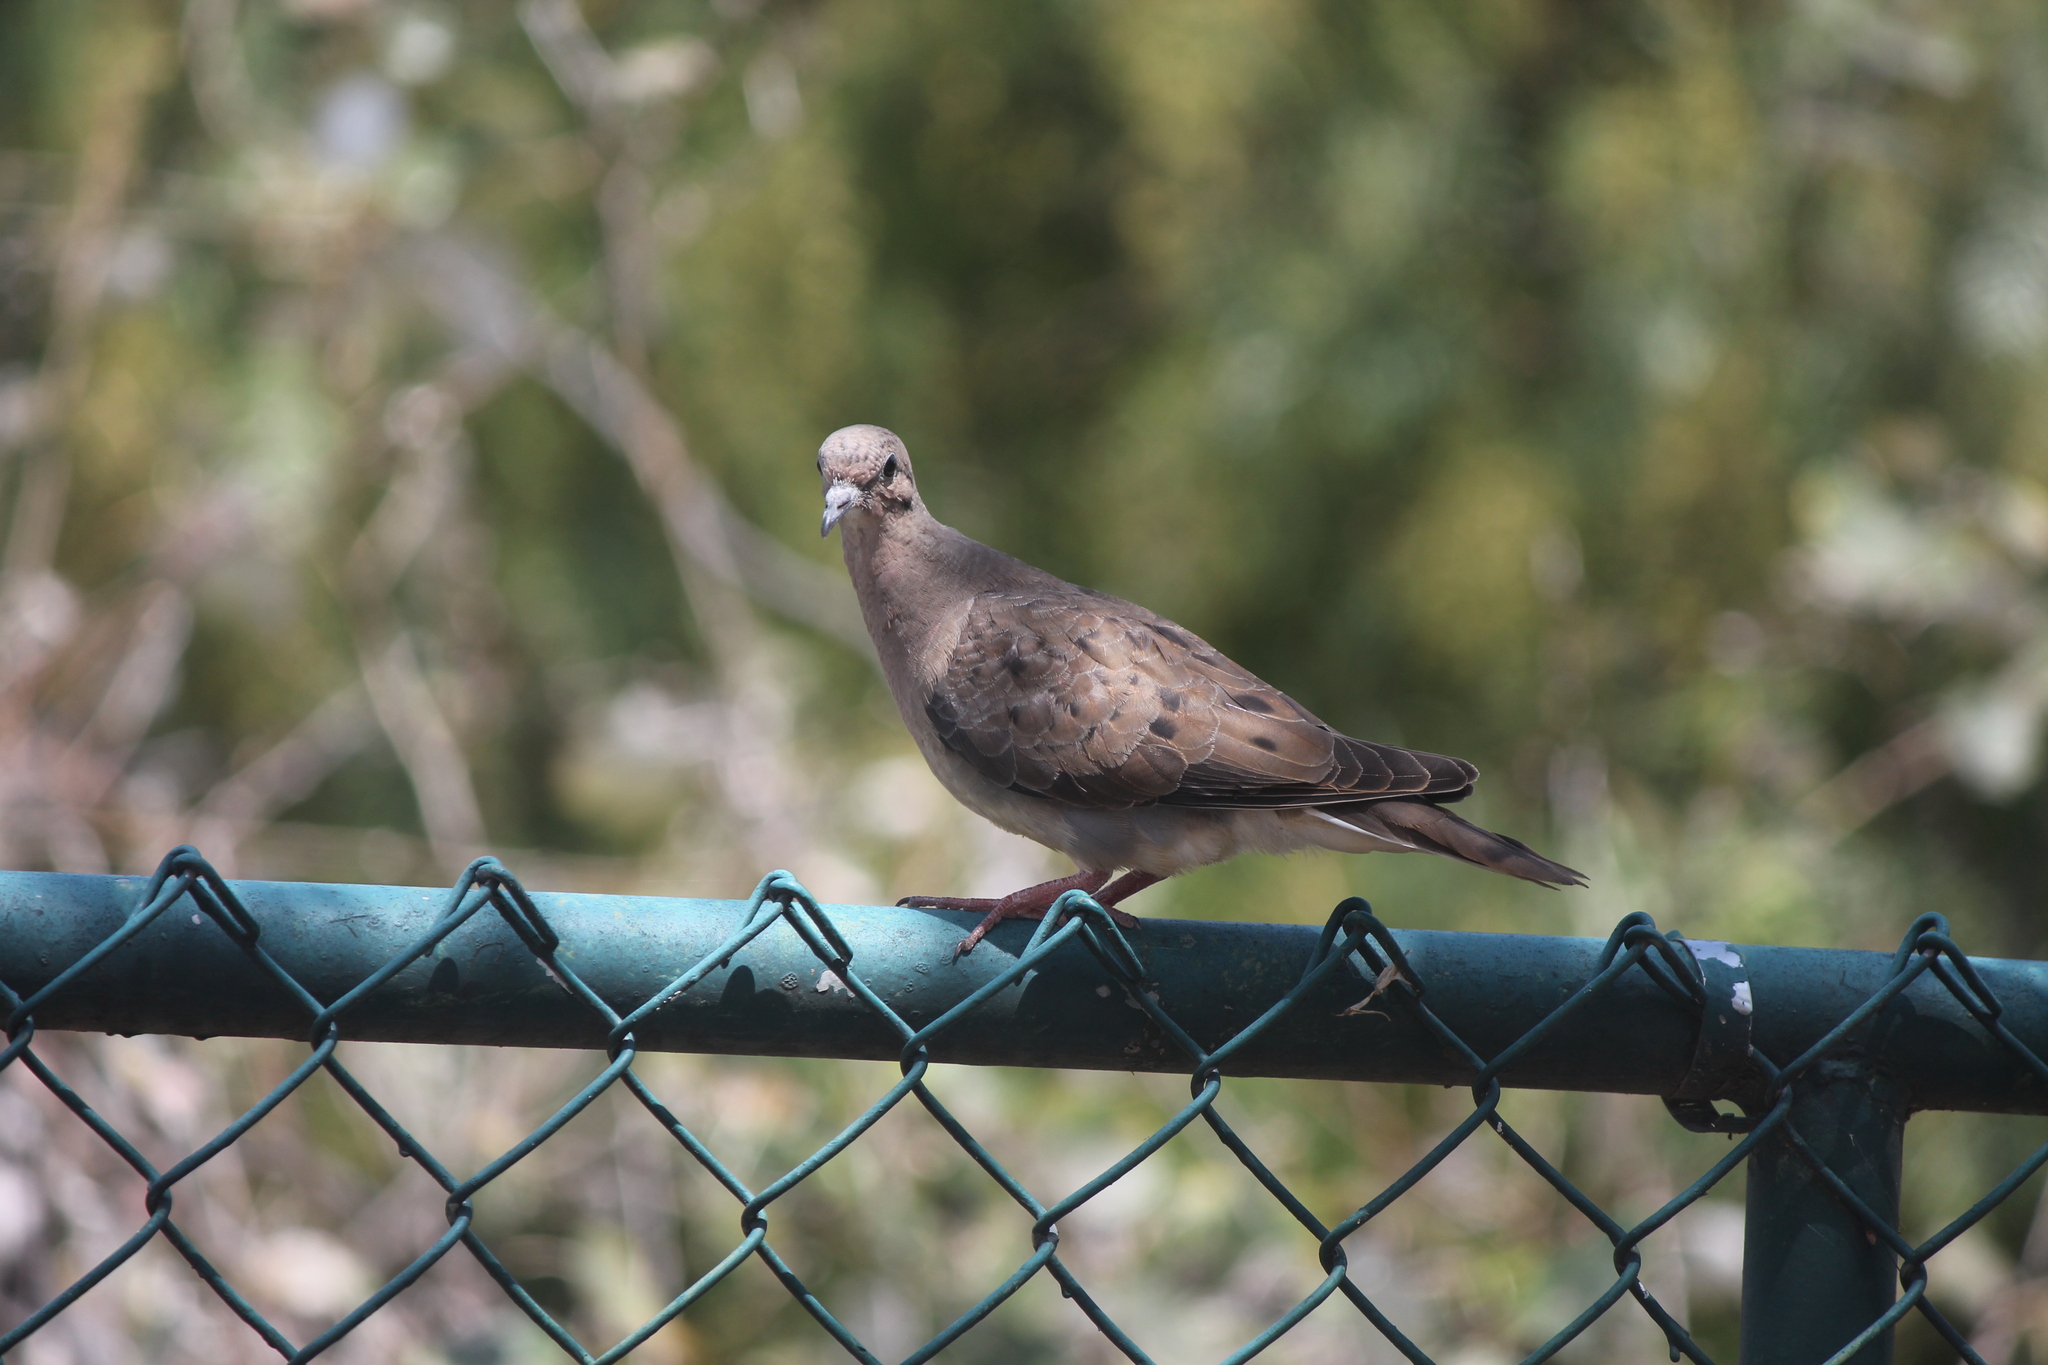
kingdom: Animalia
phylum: Chordata
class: Aves
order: Columbiformes
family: Columbidae
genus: Zenaida
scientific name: Zenaida auriculata
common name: Eared dove
